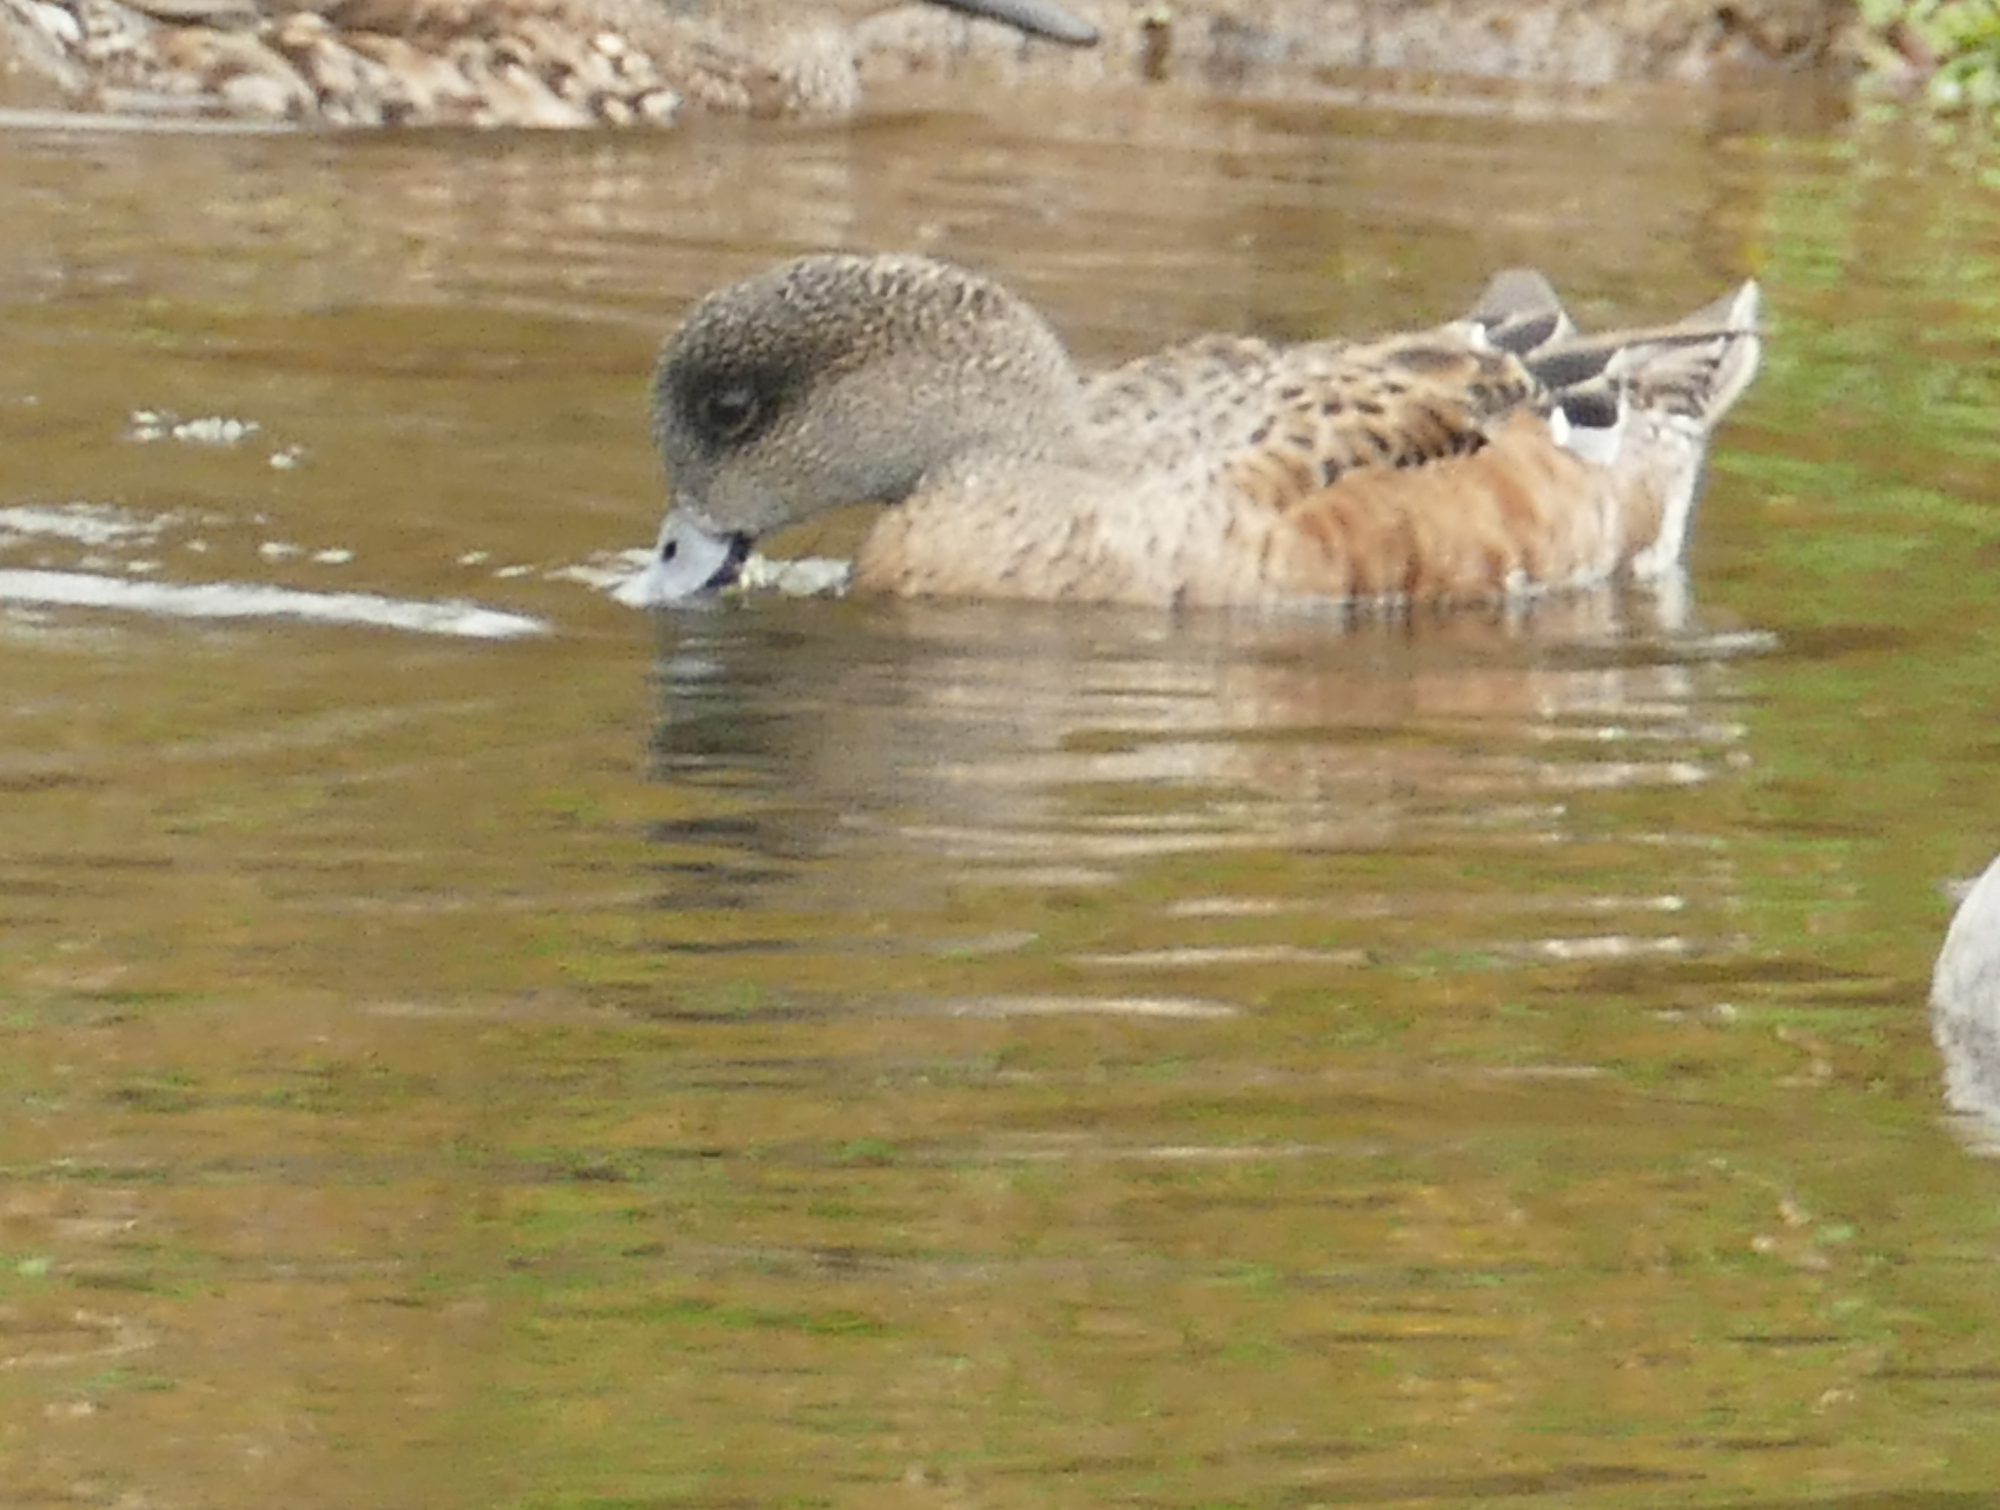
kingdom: Animalia
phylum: Chordata
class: Aves
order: Anseriformes
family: Anatidae
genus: Mareca
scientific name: Mareca americana
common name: American wigeon
